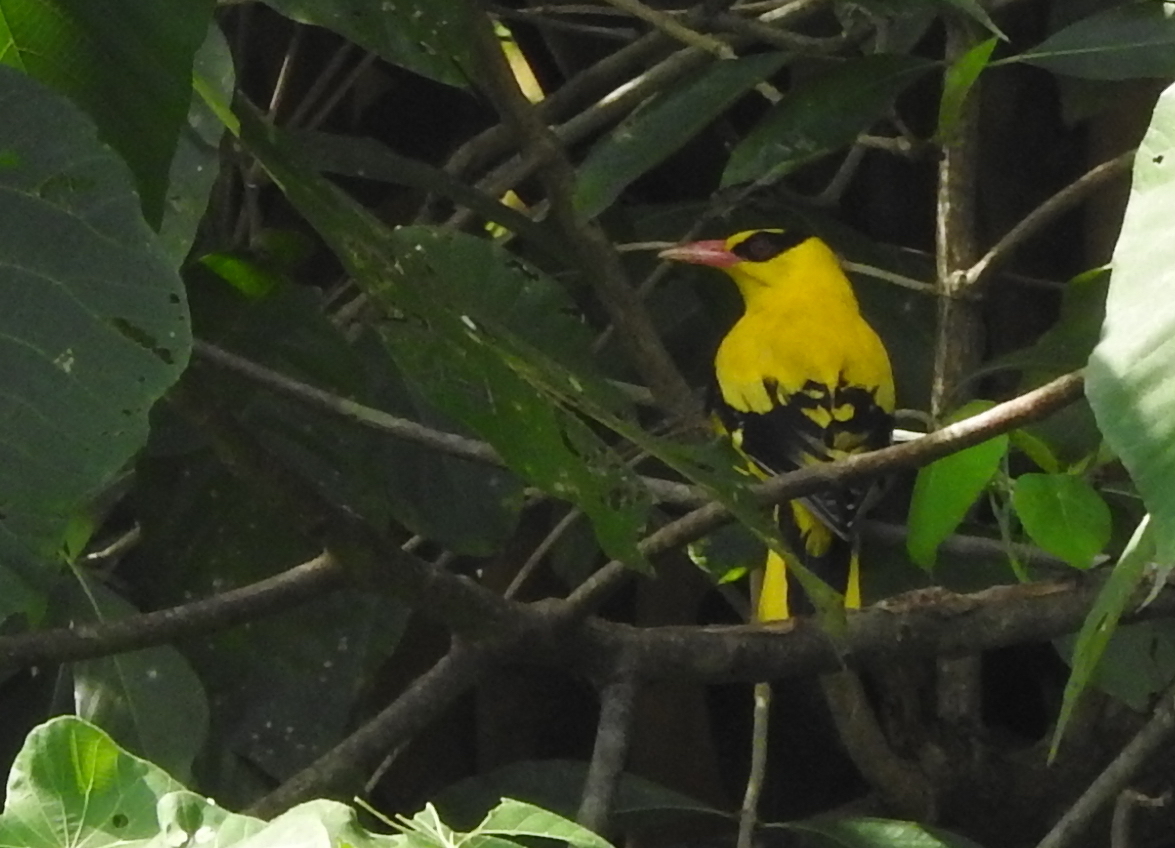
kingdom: Animalia
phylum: Chordata
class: Aves
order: Passeriformes
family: Oriolidae
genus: Oriolus
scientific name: Oriolus chinensis
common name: Black-naped oriole
